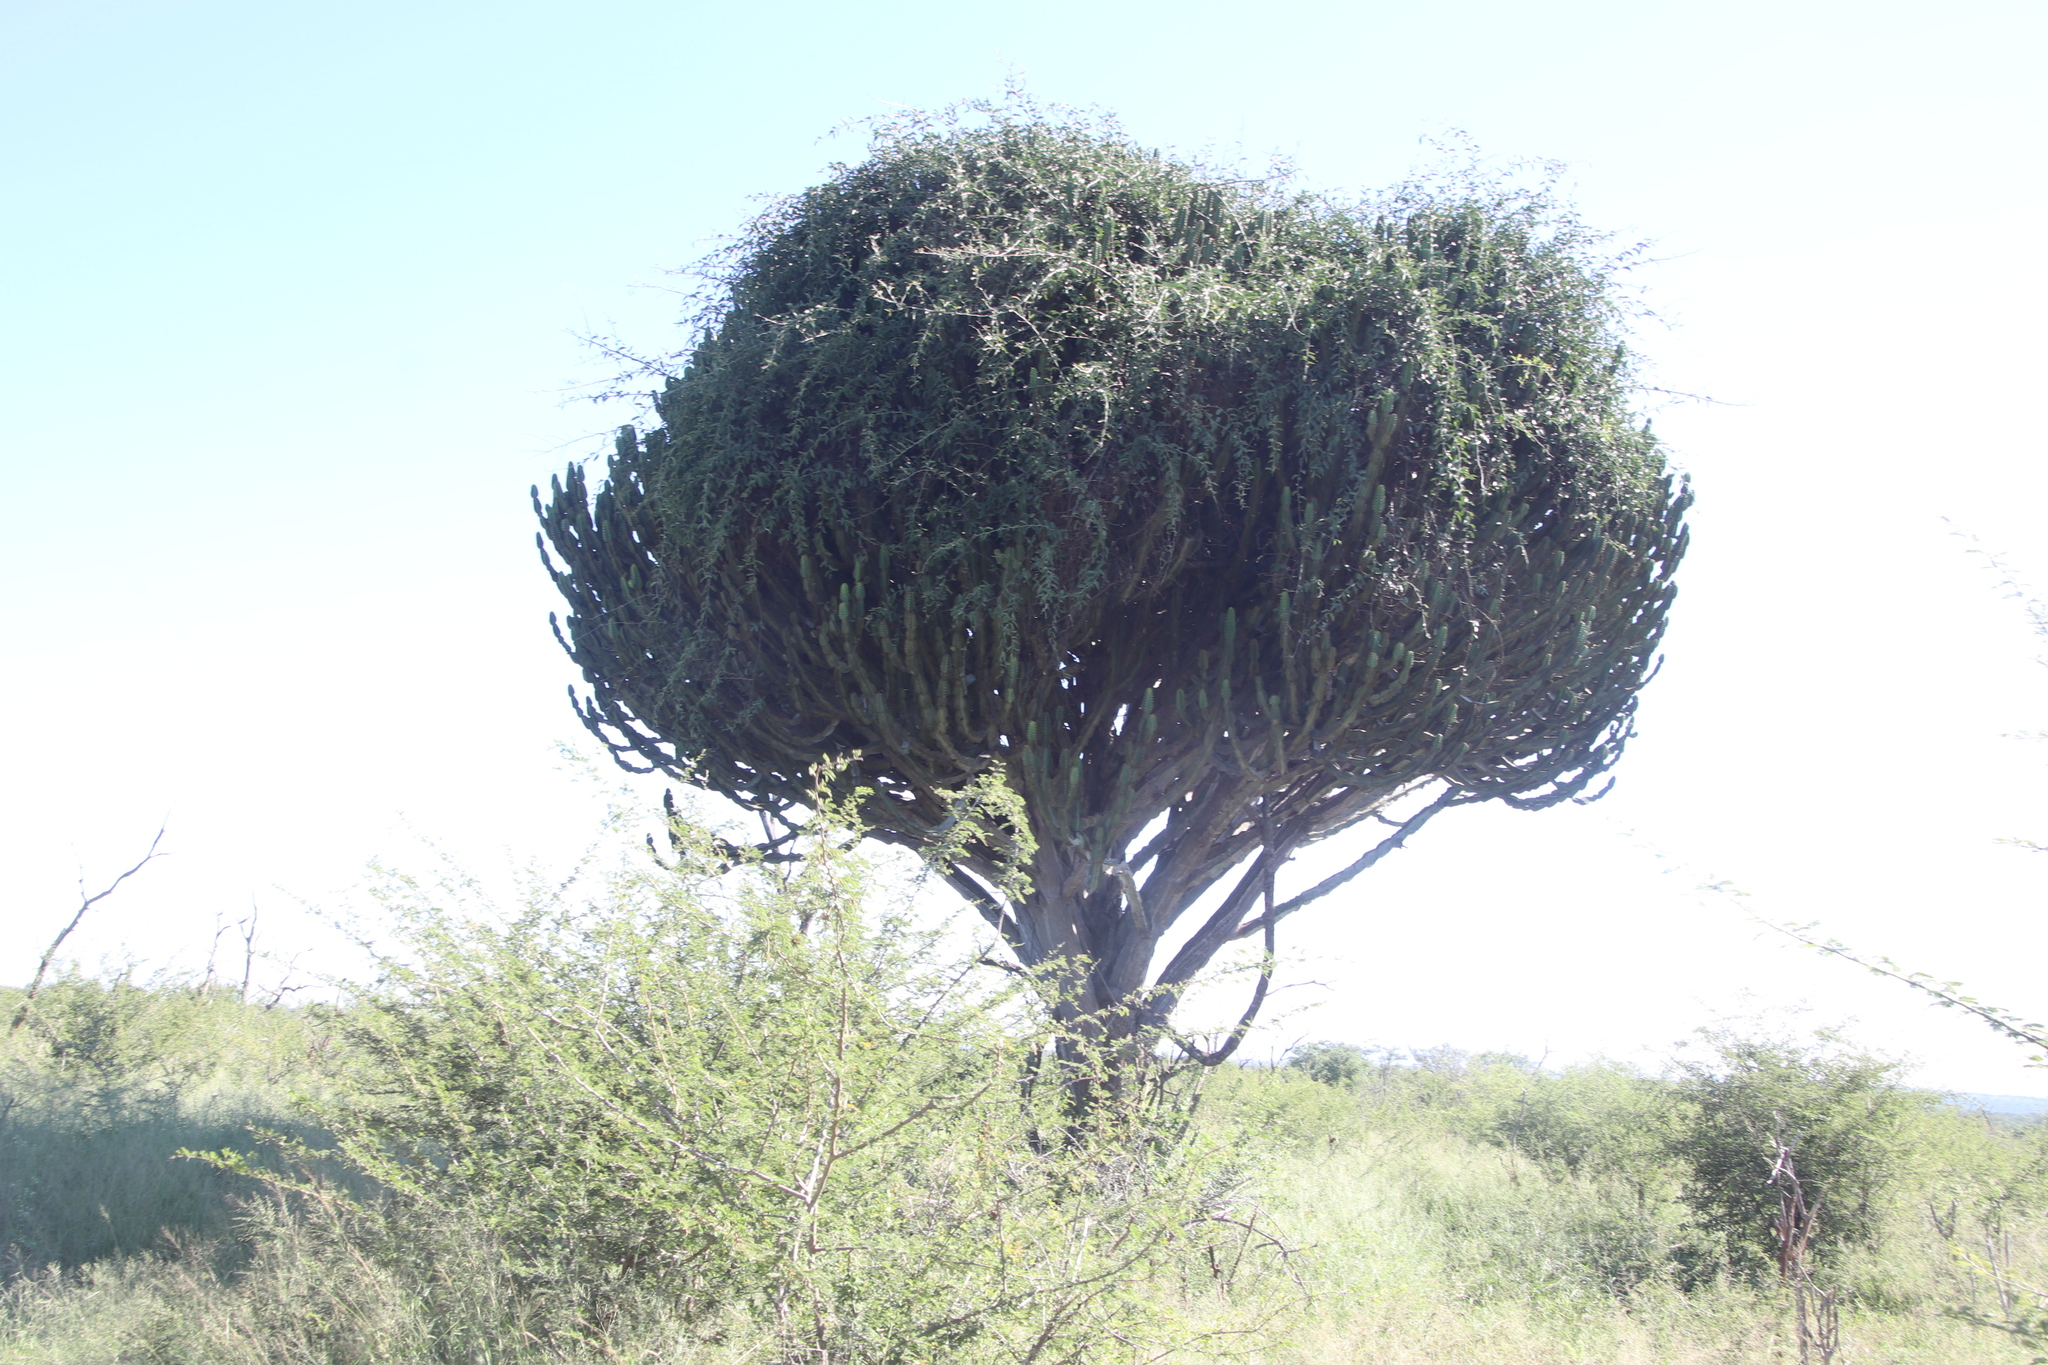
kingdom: Plantae
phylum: Tracheophyta
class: Magnoliopsida
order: Malpighiales
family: Euphorbiaceae
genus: Euphorbia
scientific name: Euphorbia ingens
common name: Cactus spurge
